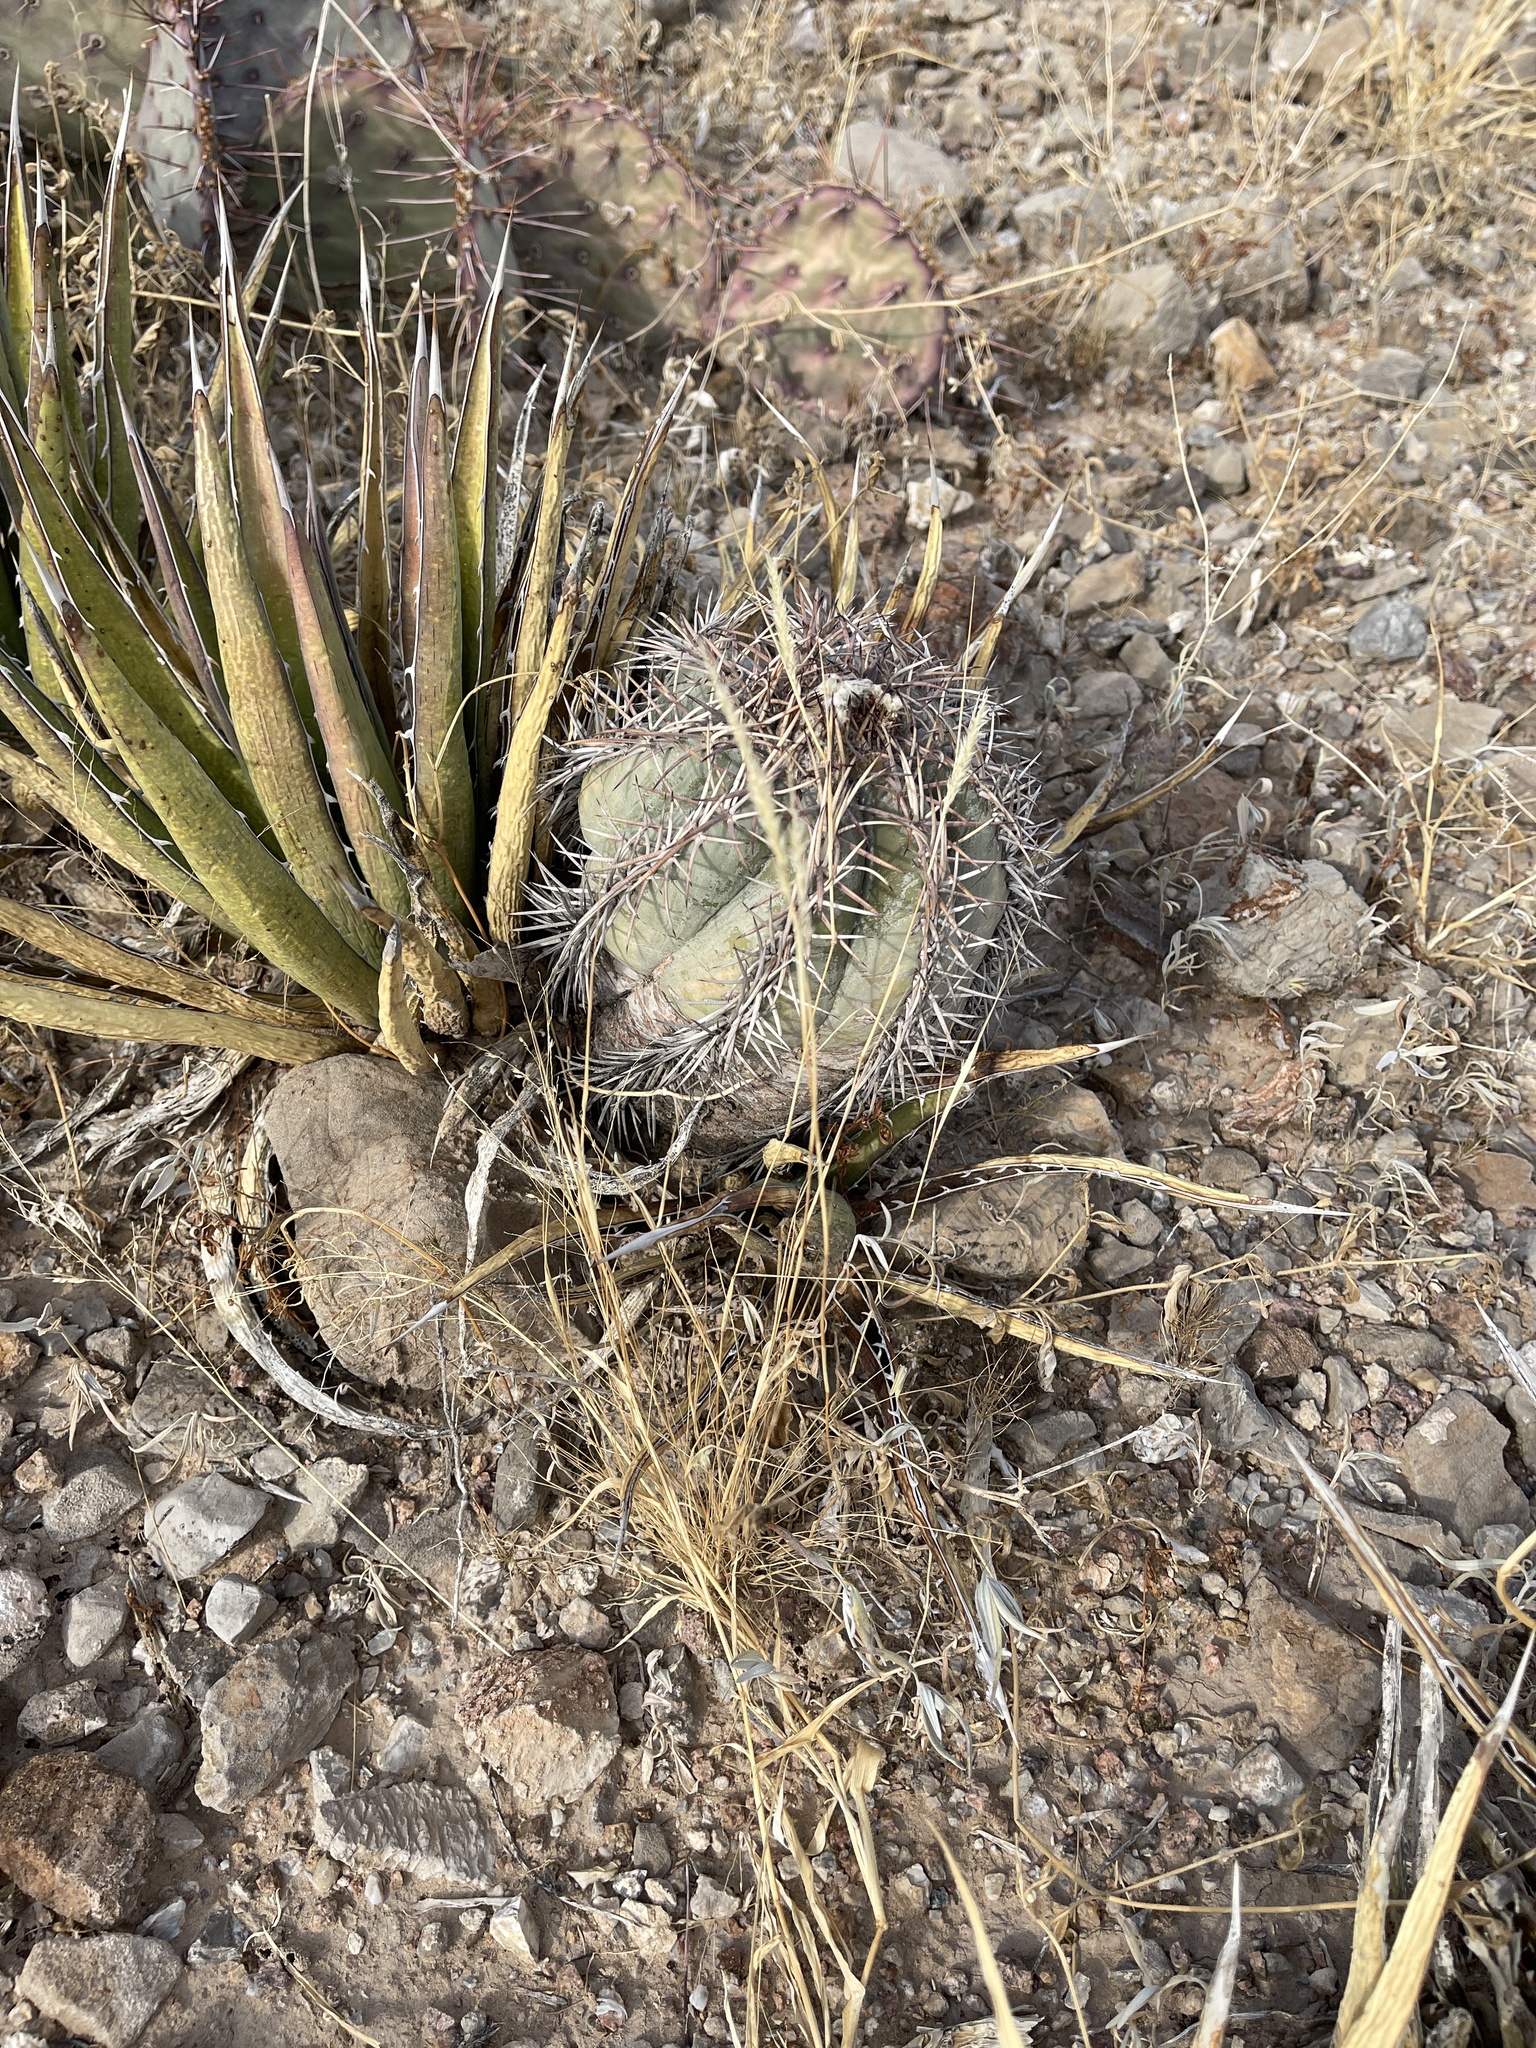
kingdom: Plantae
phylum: Tracheophyta
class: Magnoliopsida
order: Caryophyllales
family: Cactaceae
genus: Echinocactus
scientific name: Echinocactus horizonthalonius
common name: Devilshead
